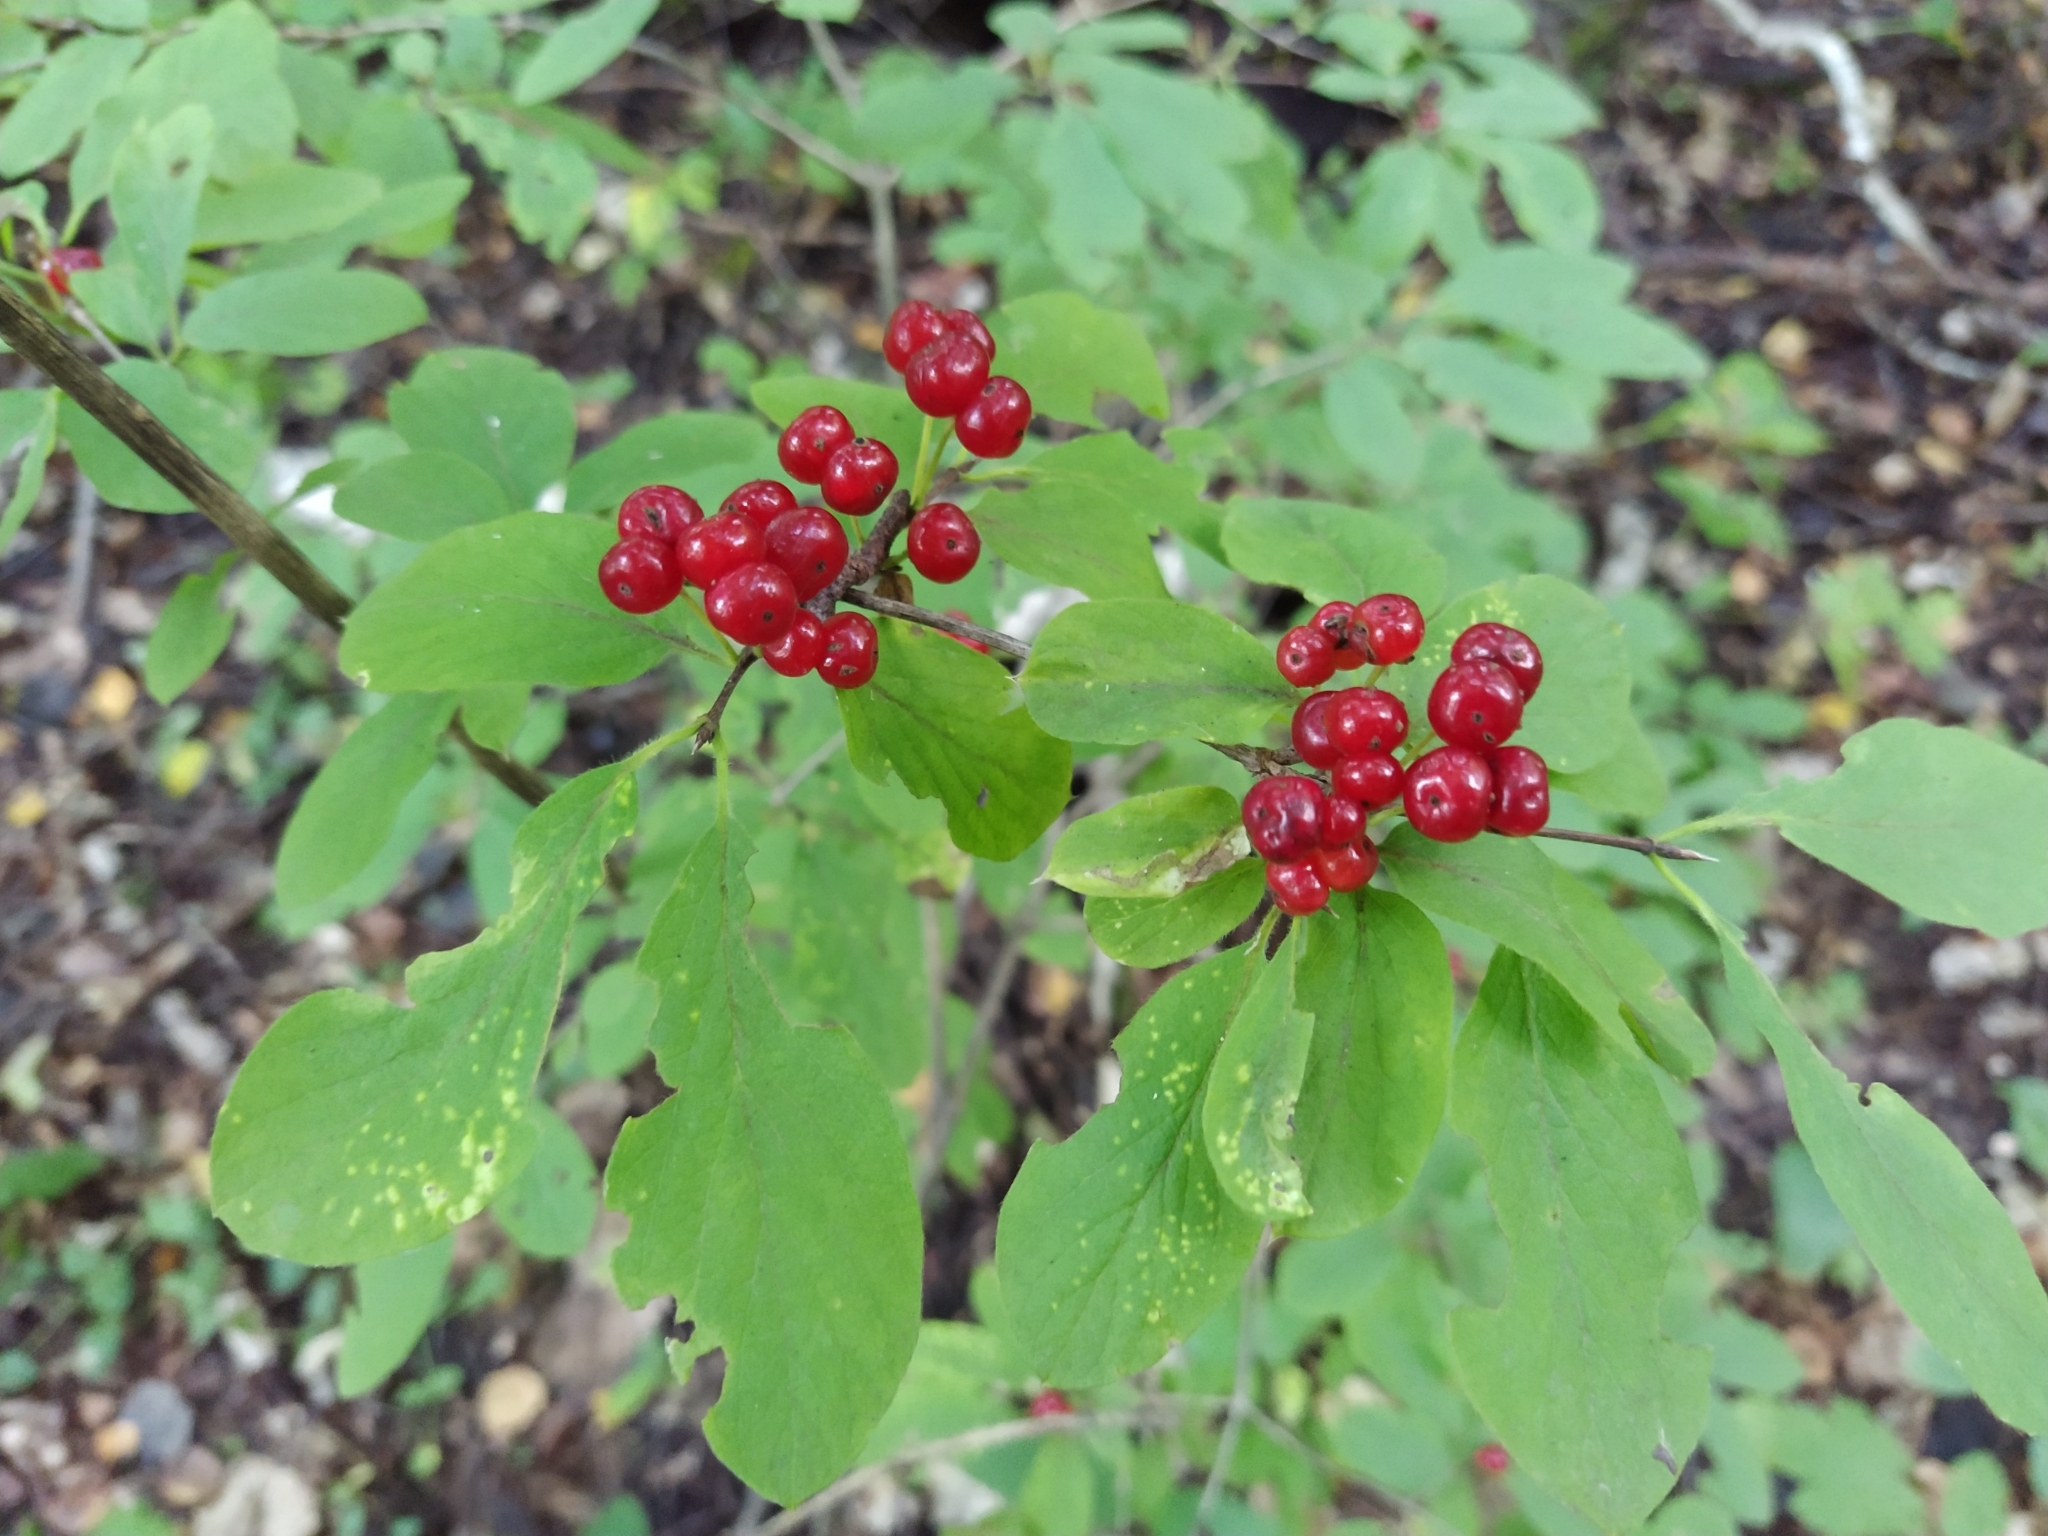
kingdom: Plantae
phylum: Tracheophyta
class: Magnoliopsida
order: Dipsacales
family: Caprifoliaceae
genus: Lonicera
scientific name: Lonicera xylosteum
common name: Fly honeysuckle
